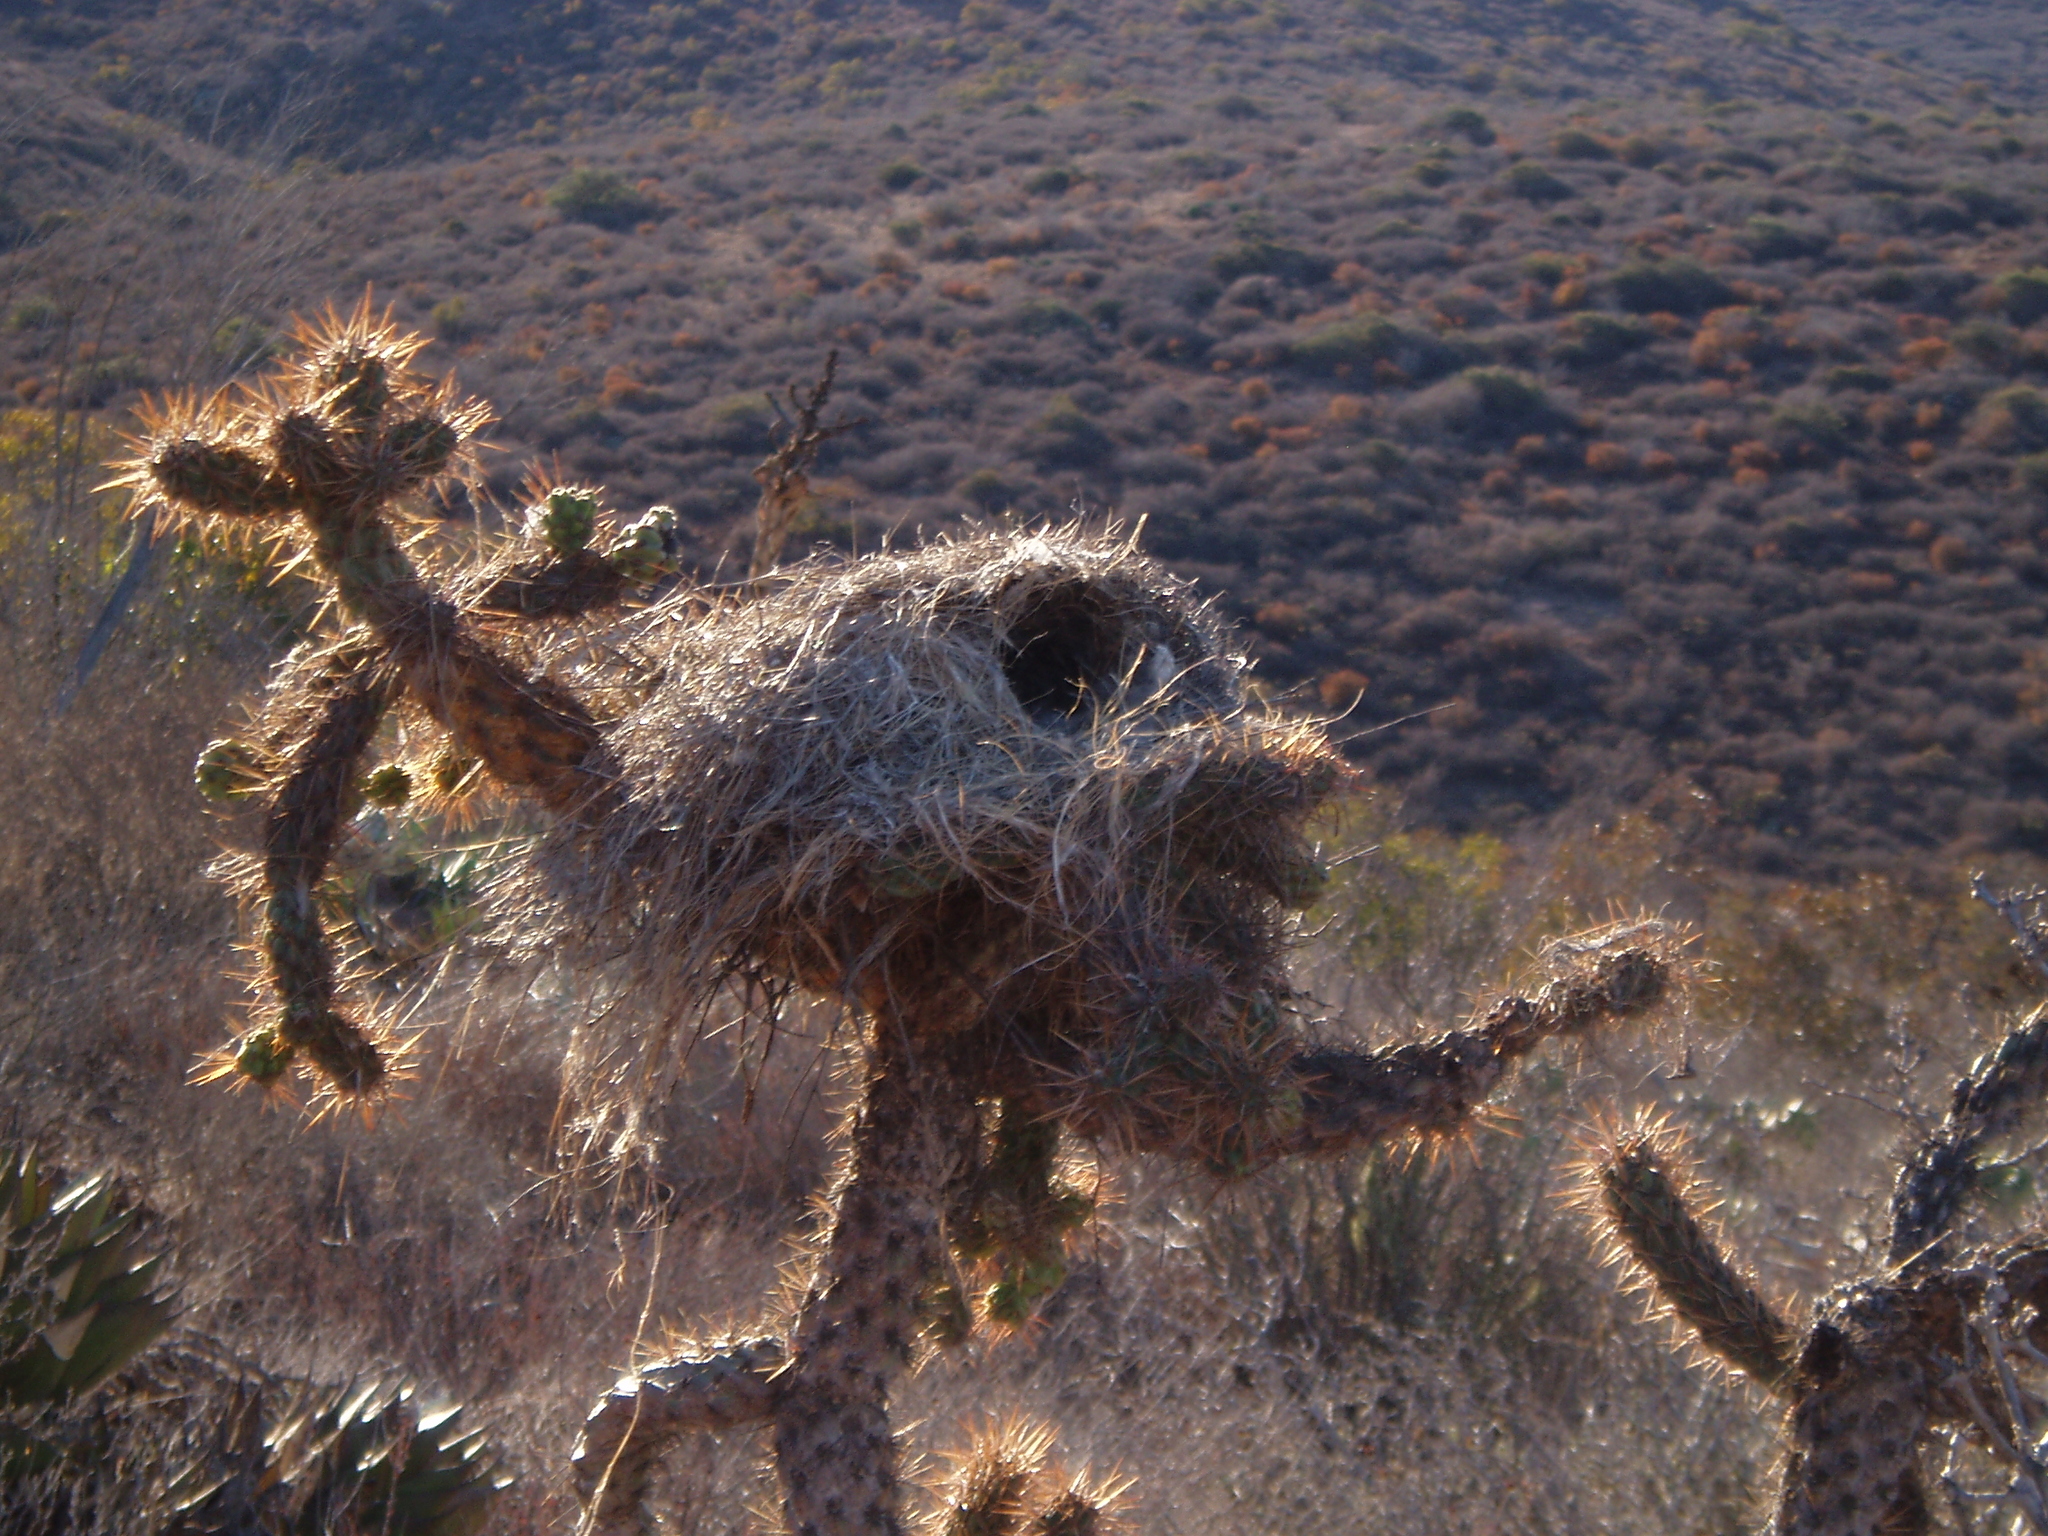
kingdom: Animalia
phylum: Chordata
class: Aves
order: Passeriformes
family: Troglodytidae
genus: Campylorhynchus
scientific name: Campylorhynchus brunneicapillus
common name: Cactus wren
